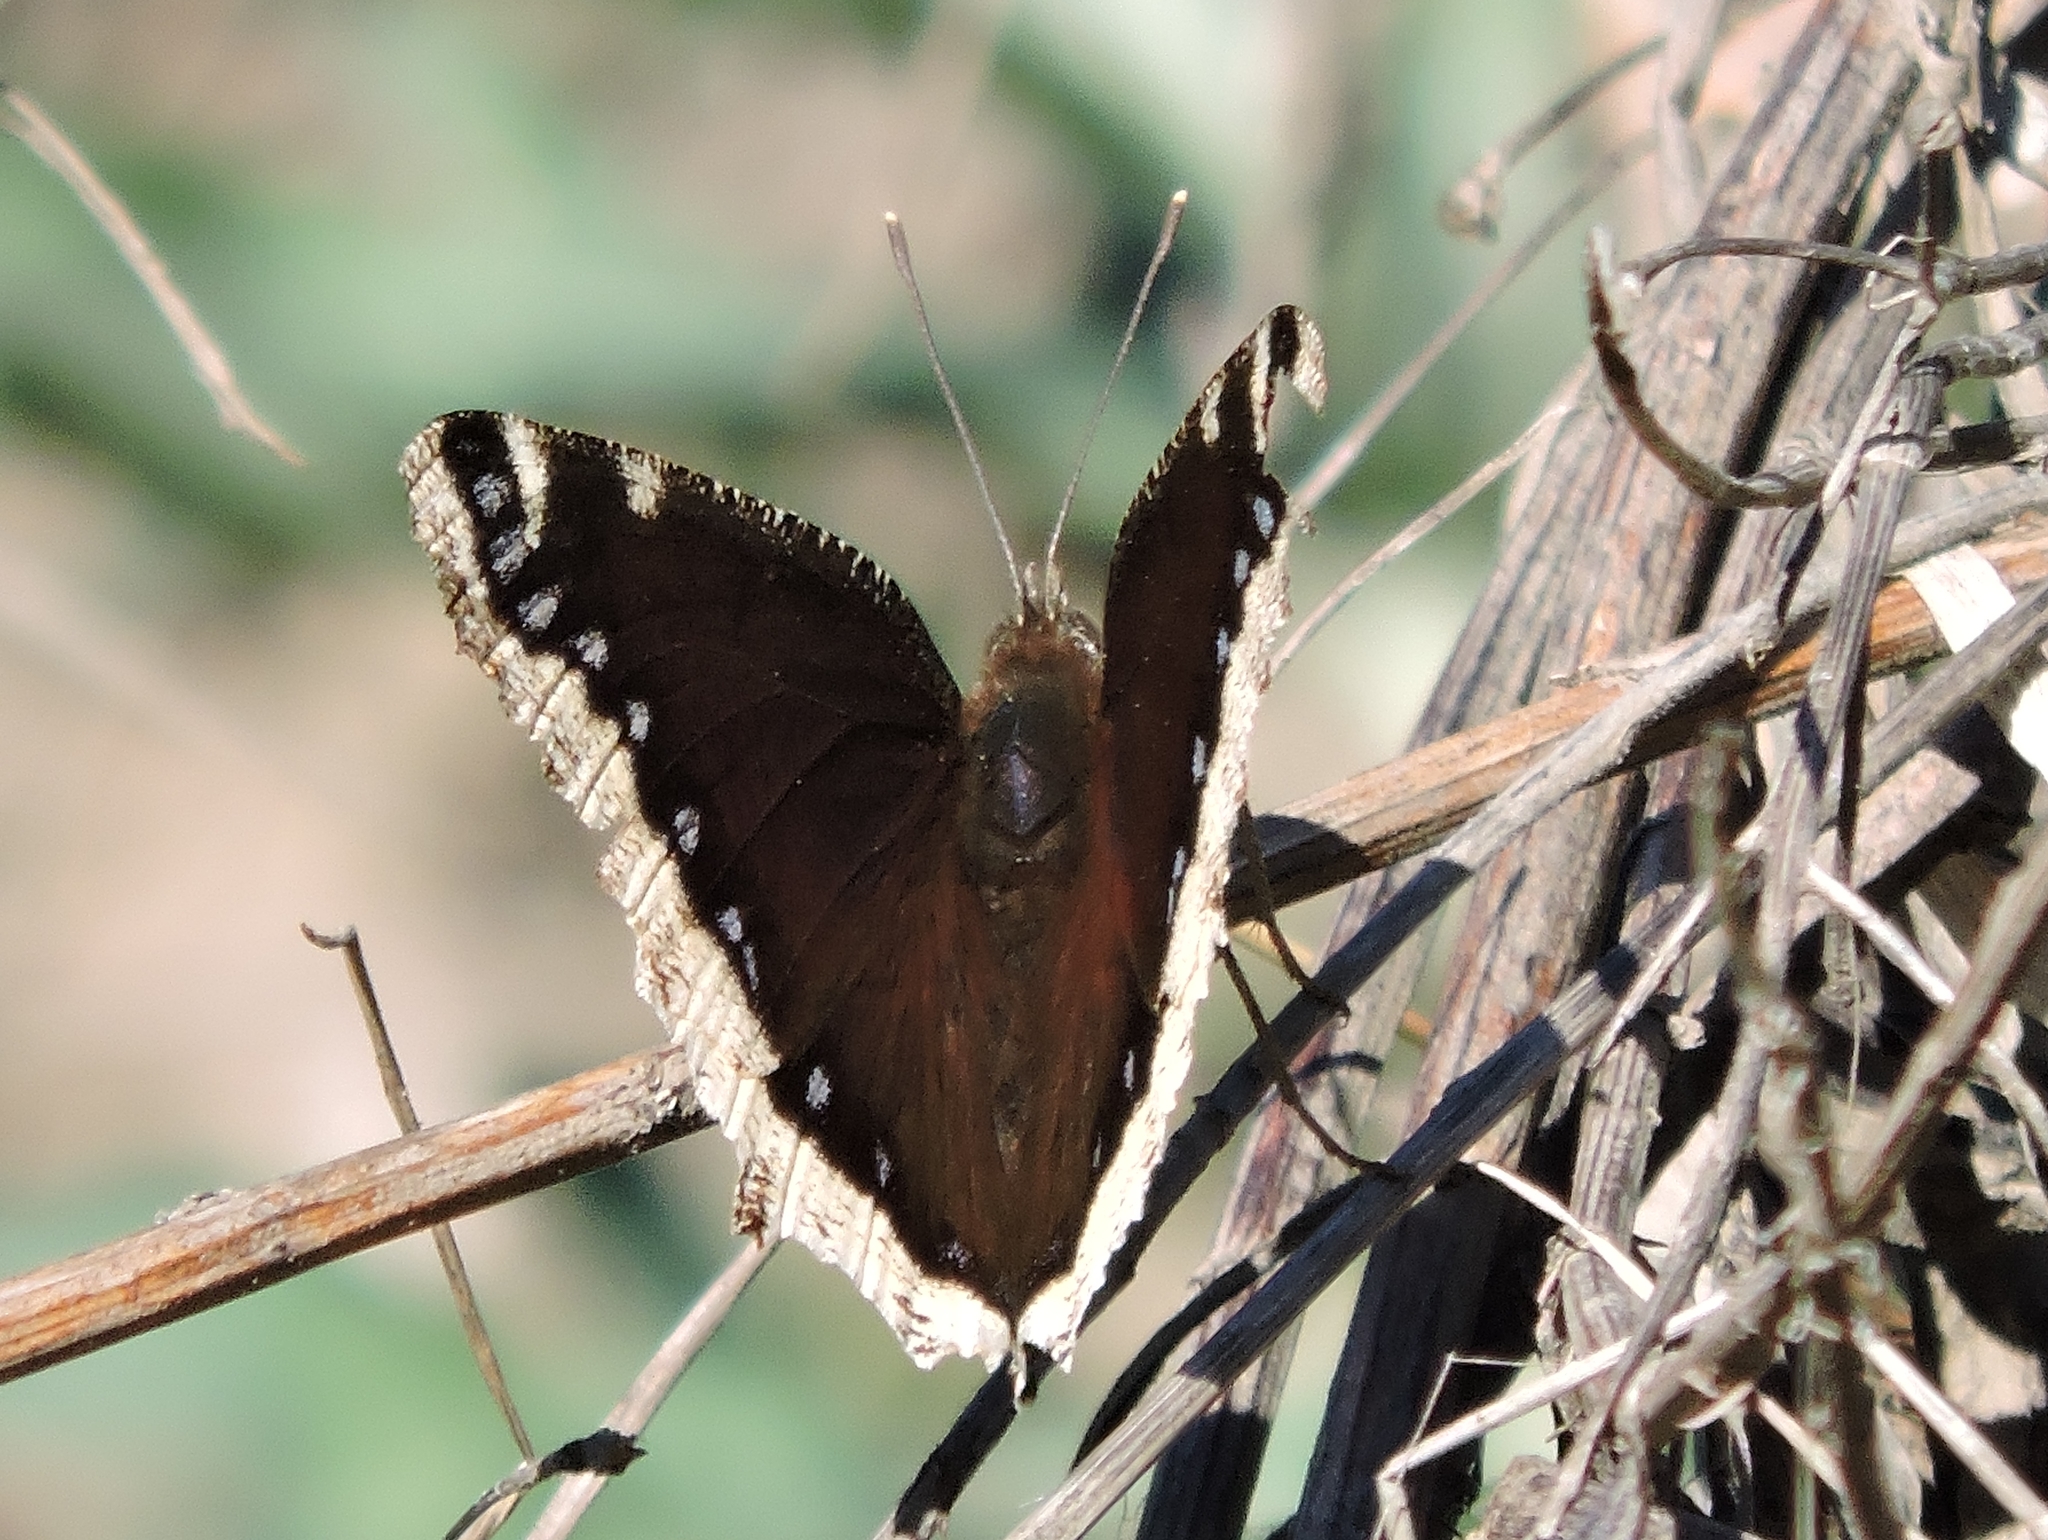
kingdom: Animalia
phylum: Arthropoda
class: Insecta
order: Lepidoptera
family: Nymphalidae
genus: Nymphalis
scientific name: Nymphalis antiopa
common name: Camberwell beauty
